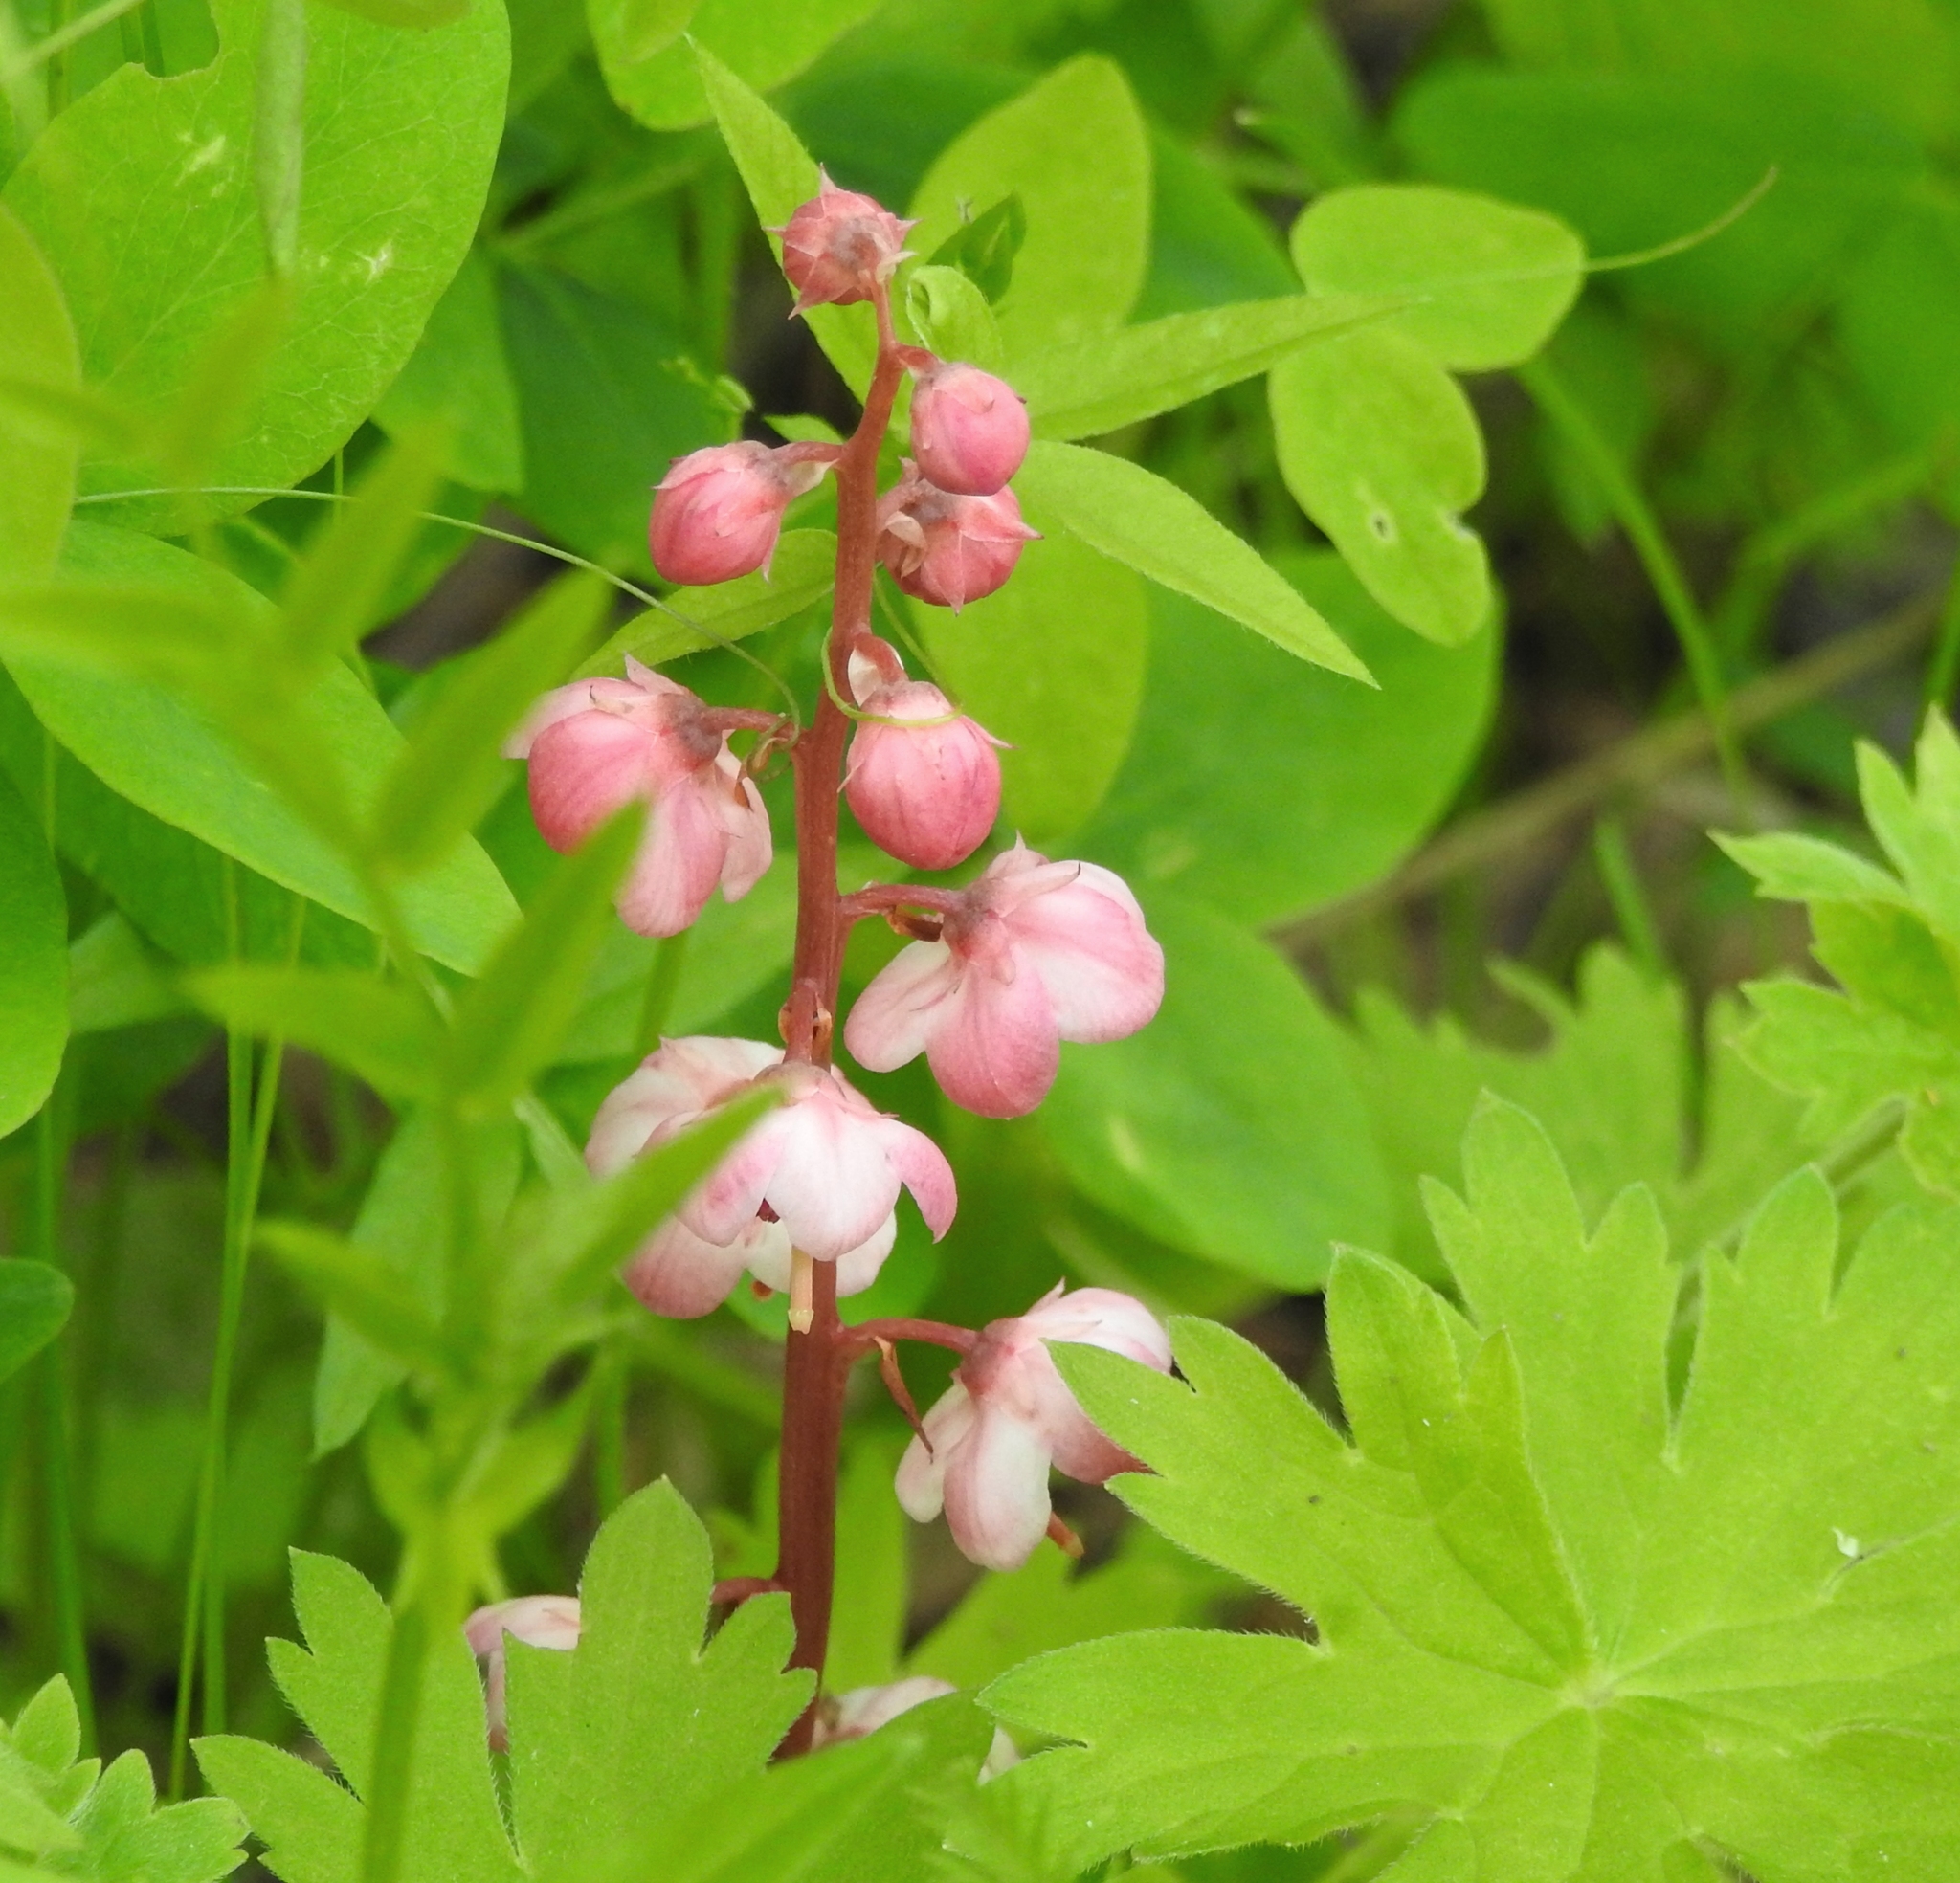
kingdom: Plantae
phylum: Tracheophyta
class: Magnoliopsida
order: Ericales
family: Ericaceae
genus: Pyrola
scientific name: Pyrola asarifolia
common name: Bog wintergreen
